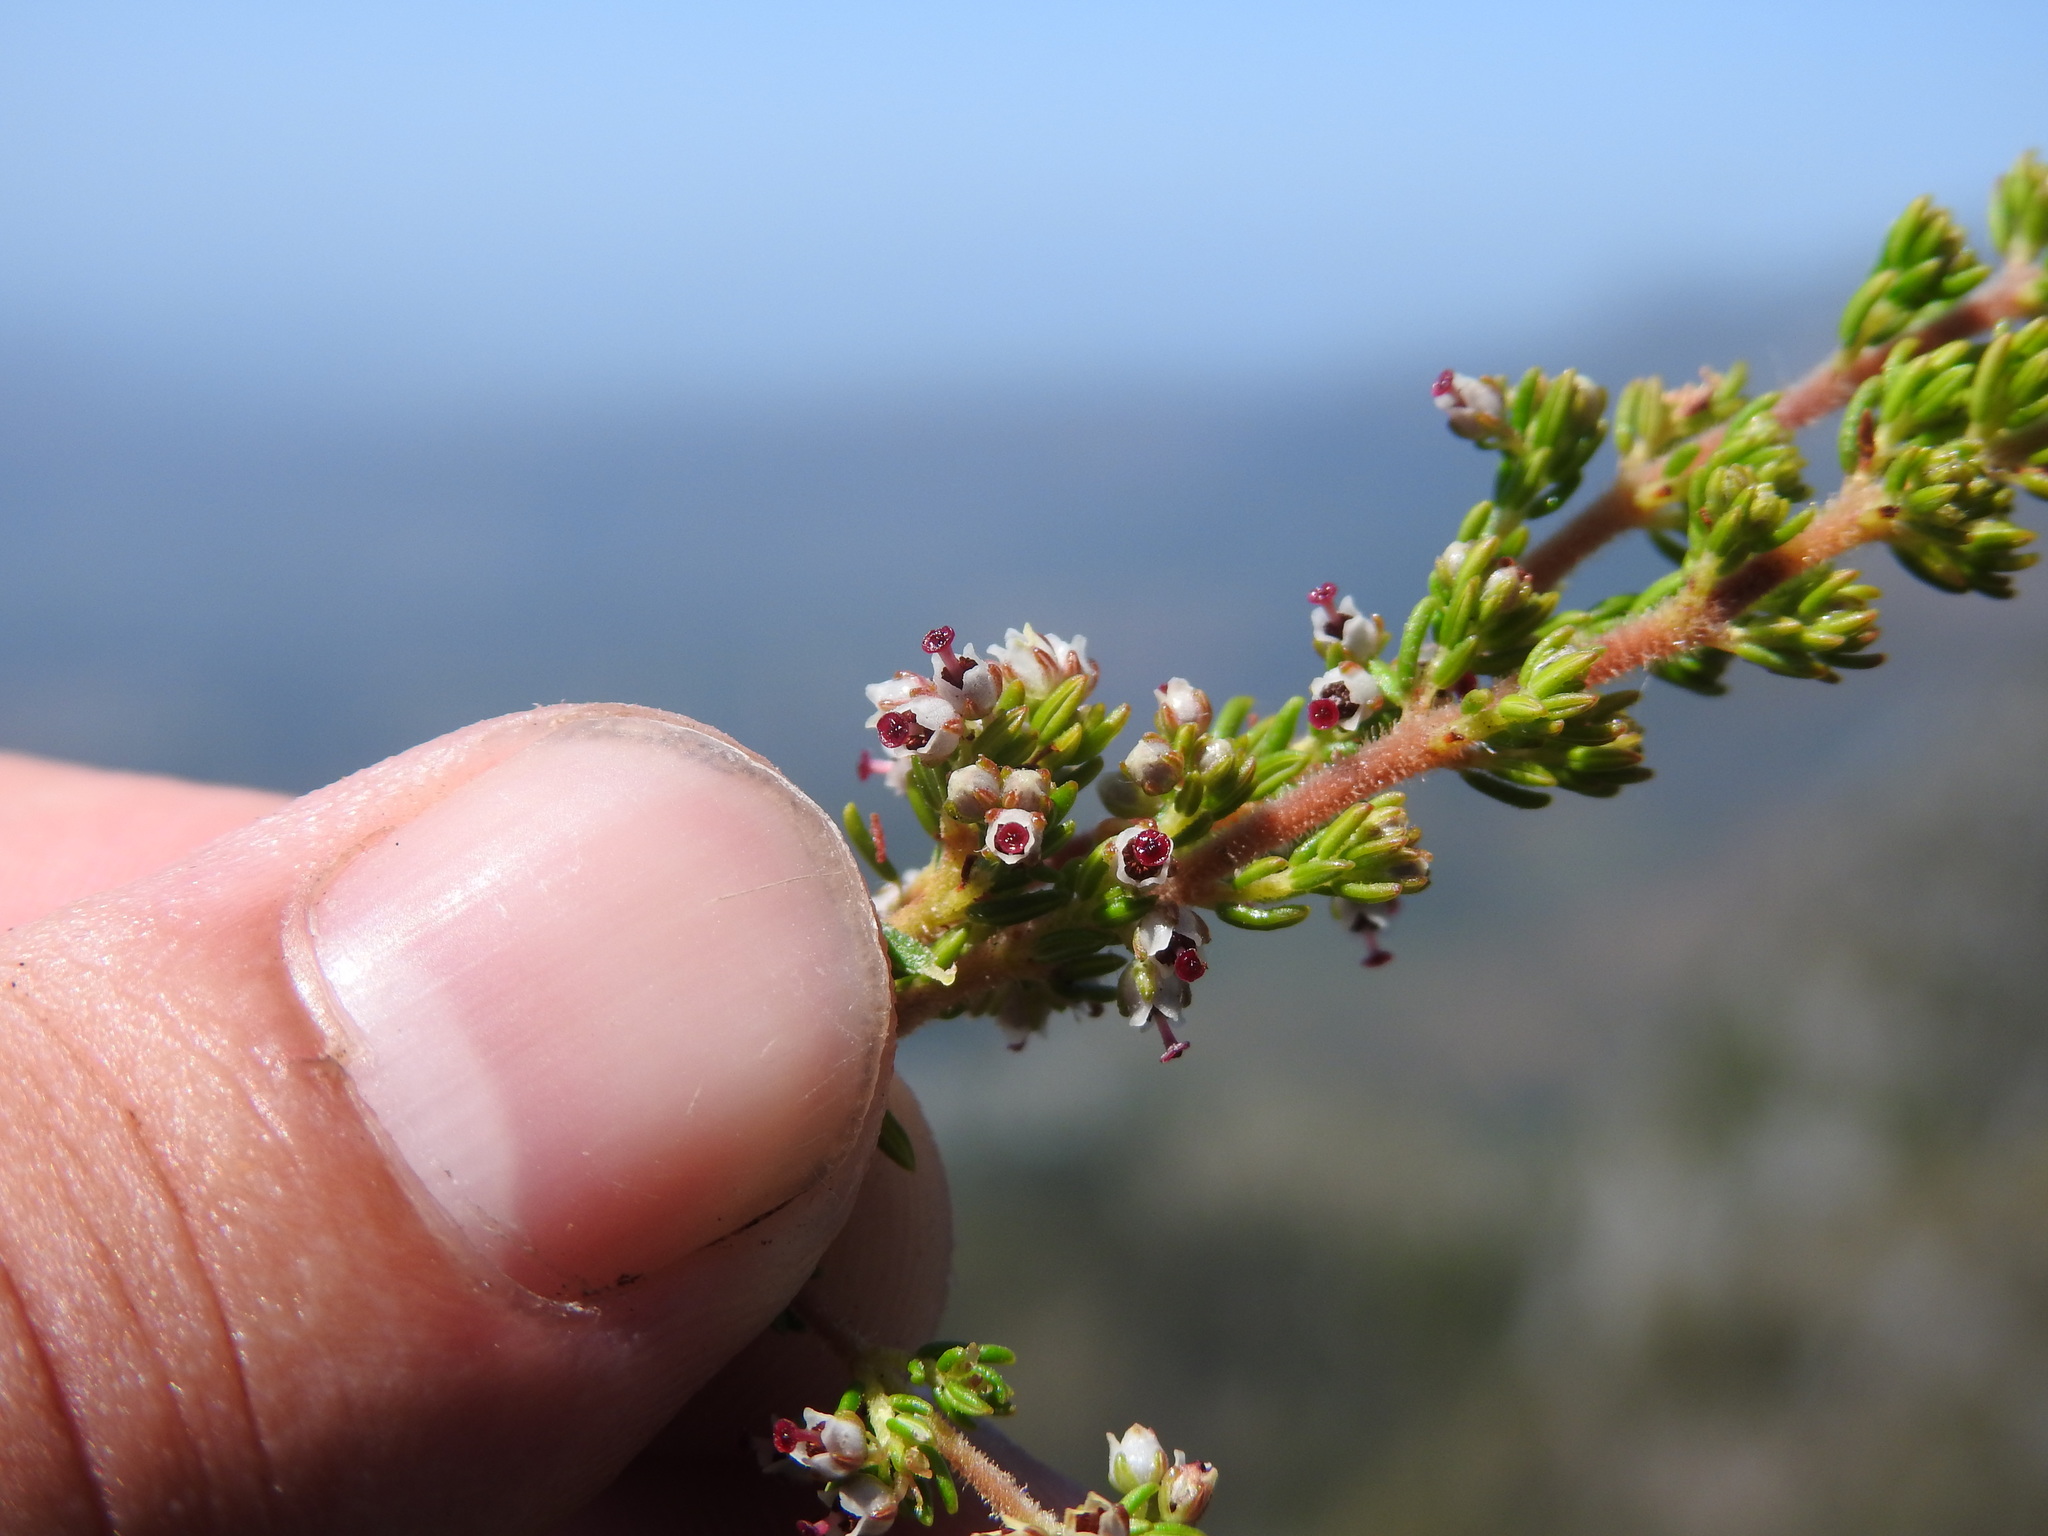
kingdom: Plantae
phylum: Tracheophyta
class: Magnoliopsida
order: Ericales
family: Ericaceae
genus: Erica
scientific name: Erica hispidula
